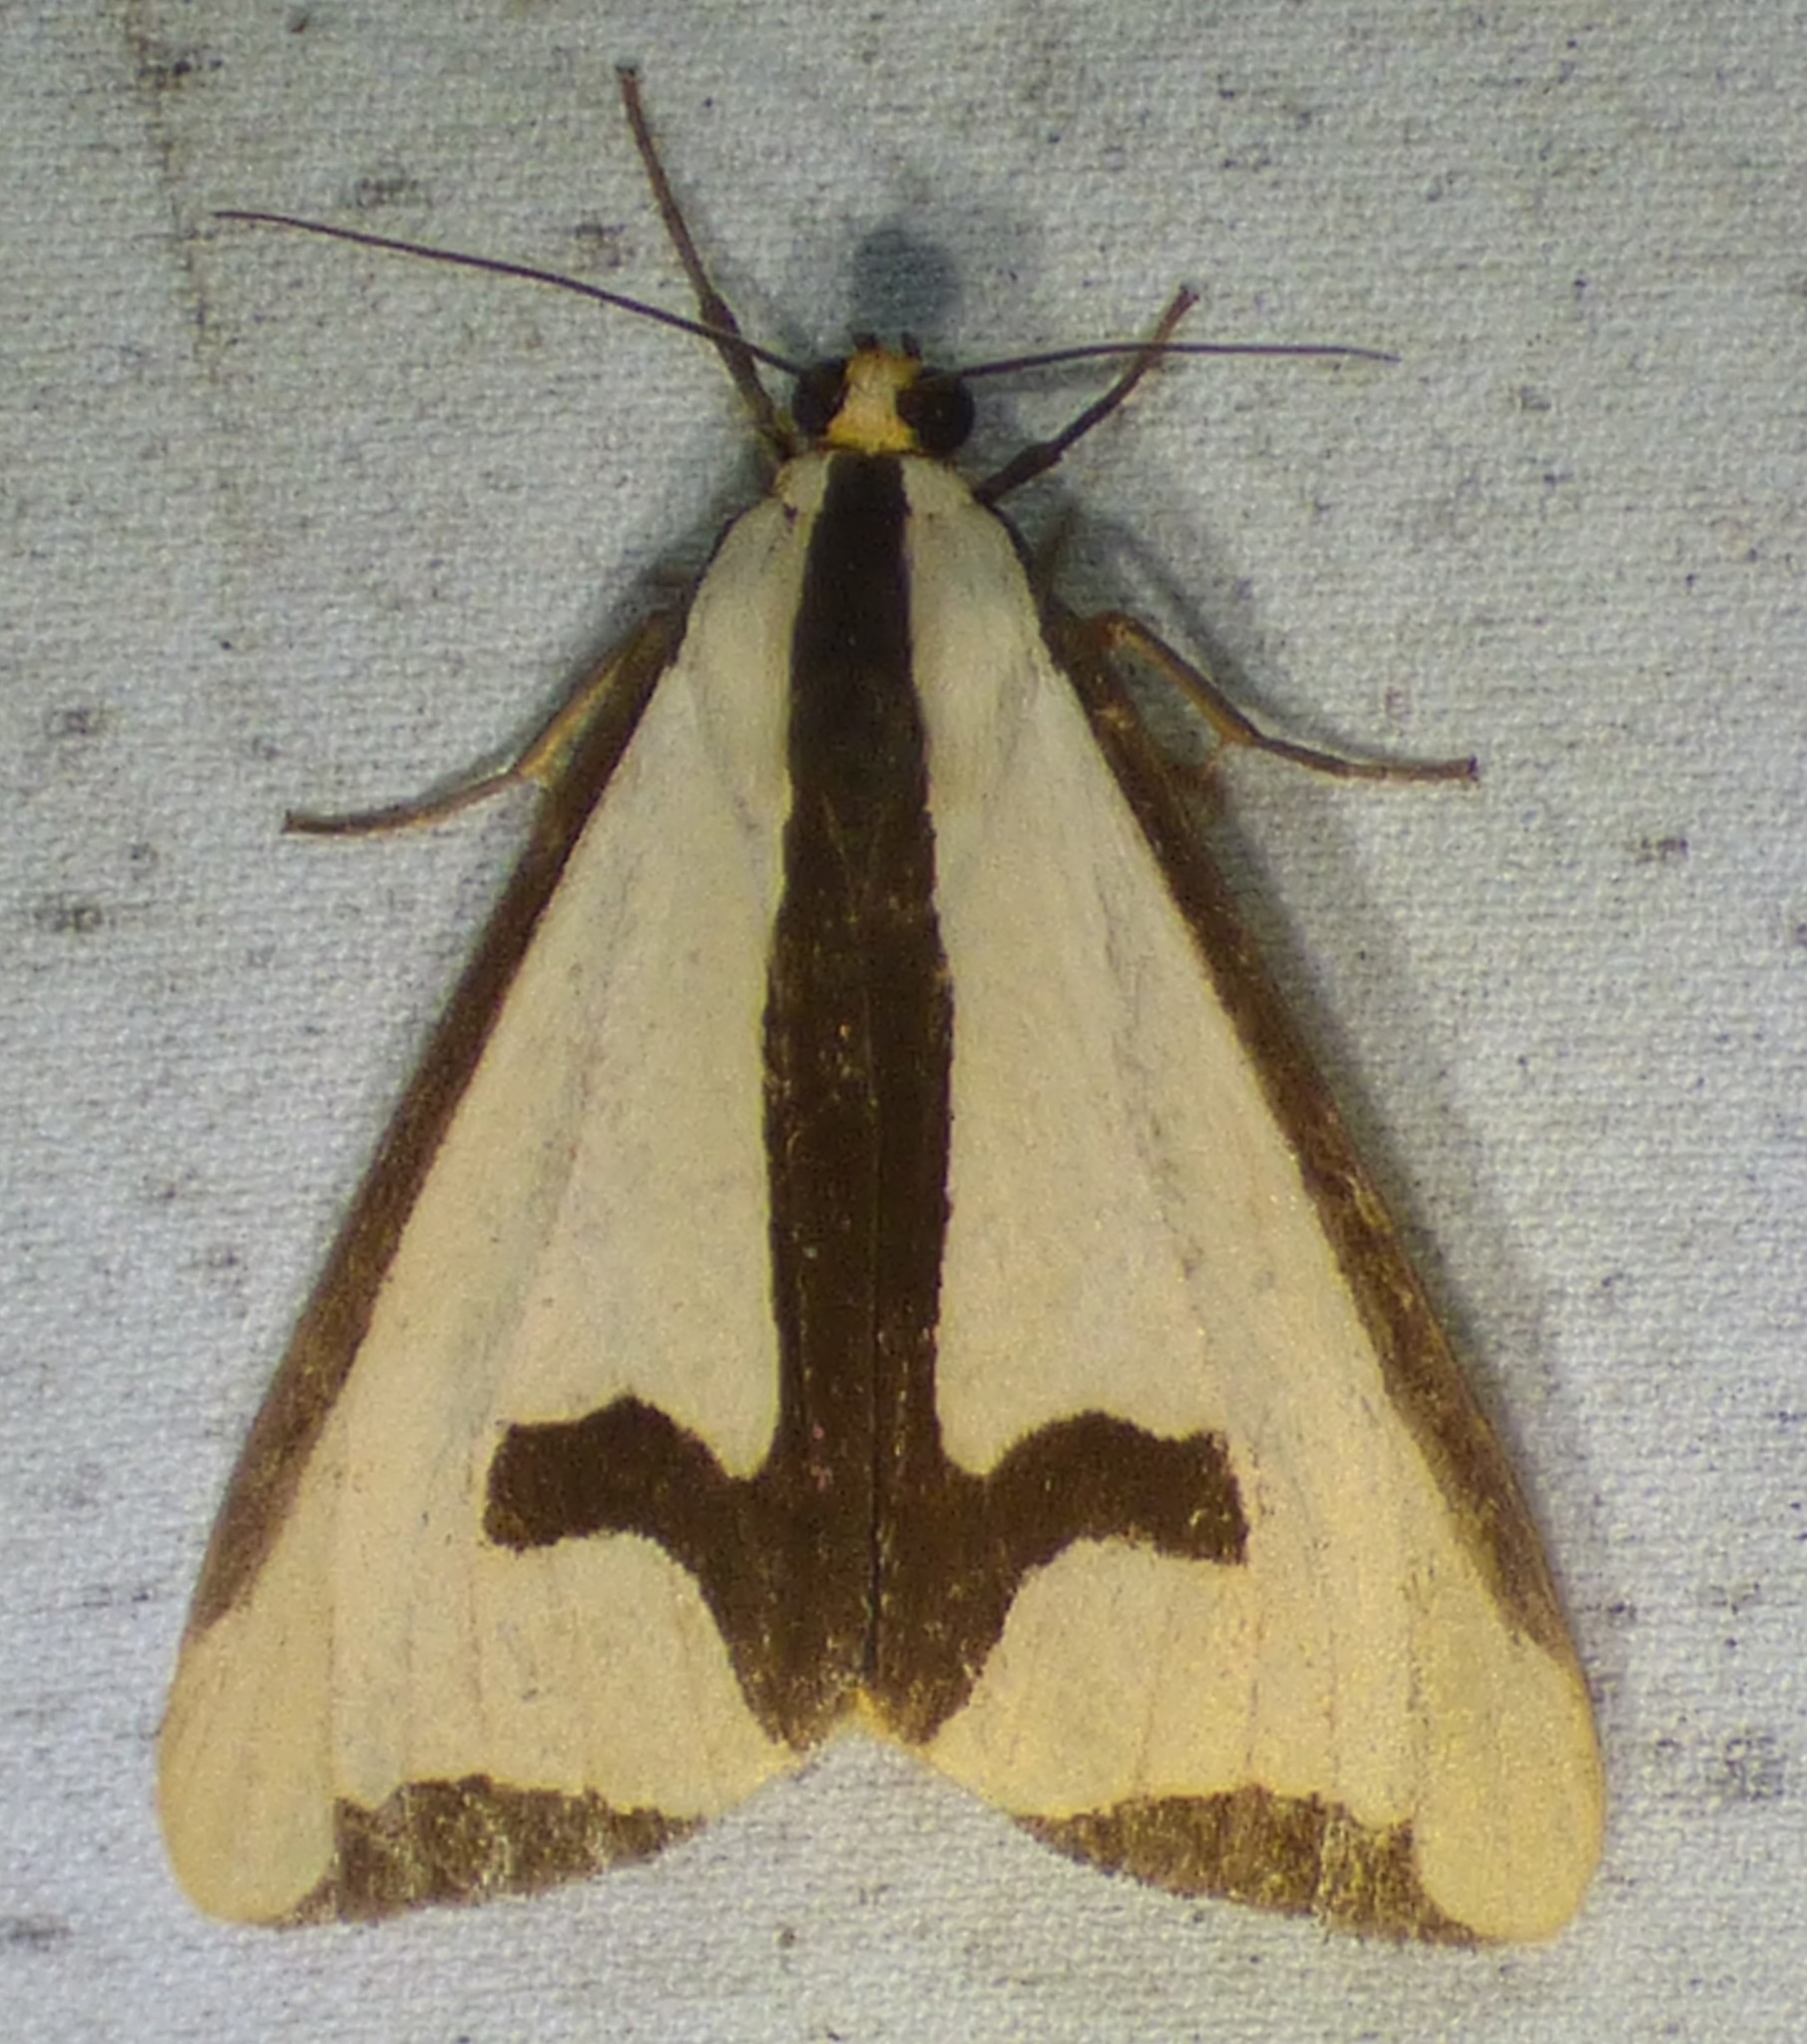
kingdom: Animalia
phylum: Arthropoda
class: Insecta
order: Lepidoptera
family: Erebidae
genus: Haploa
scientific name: Haploa clymene
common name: Clymene moth
